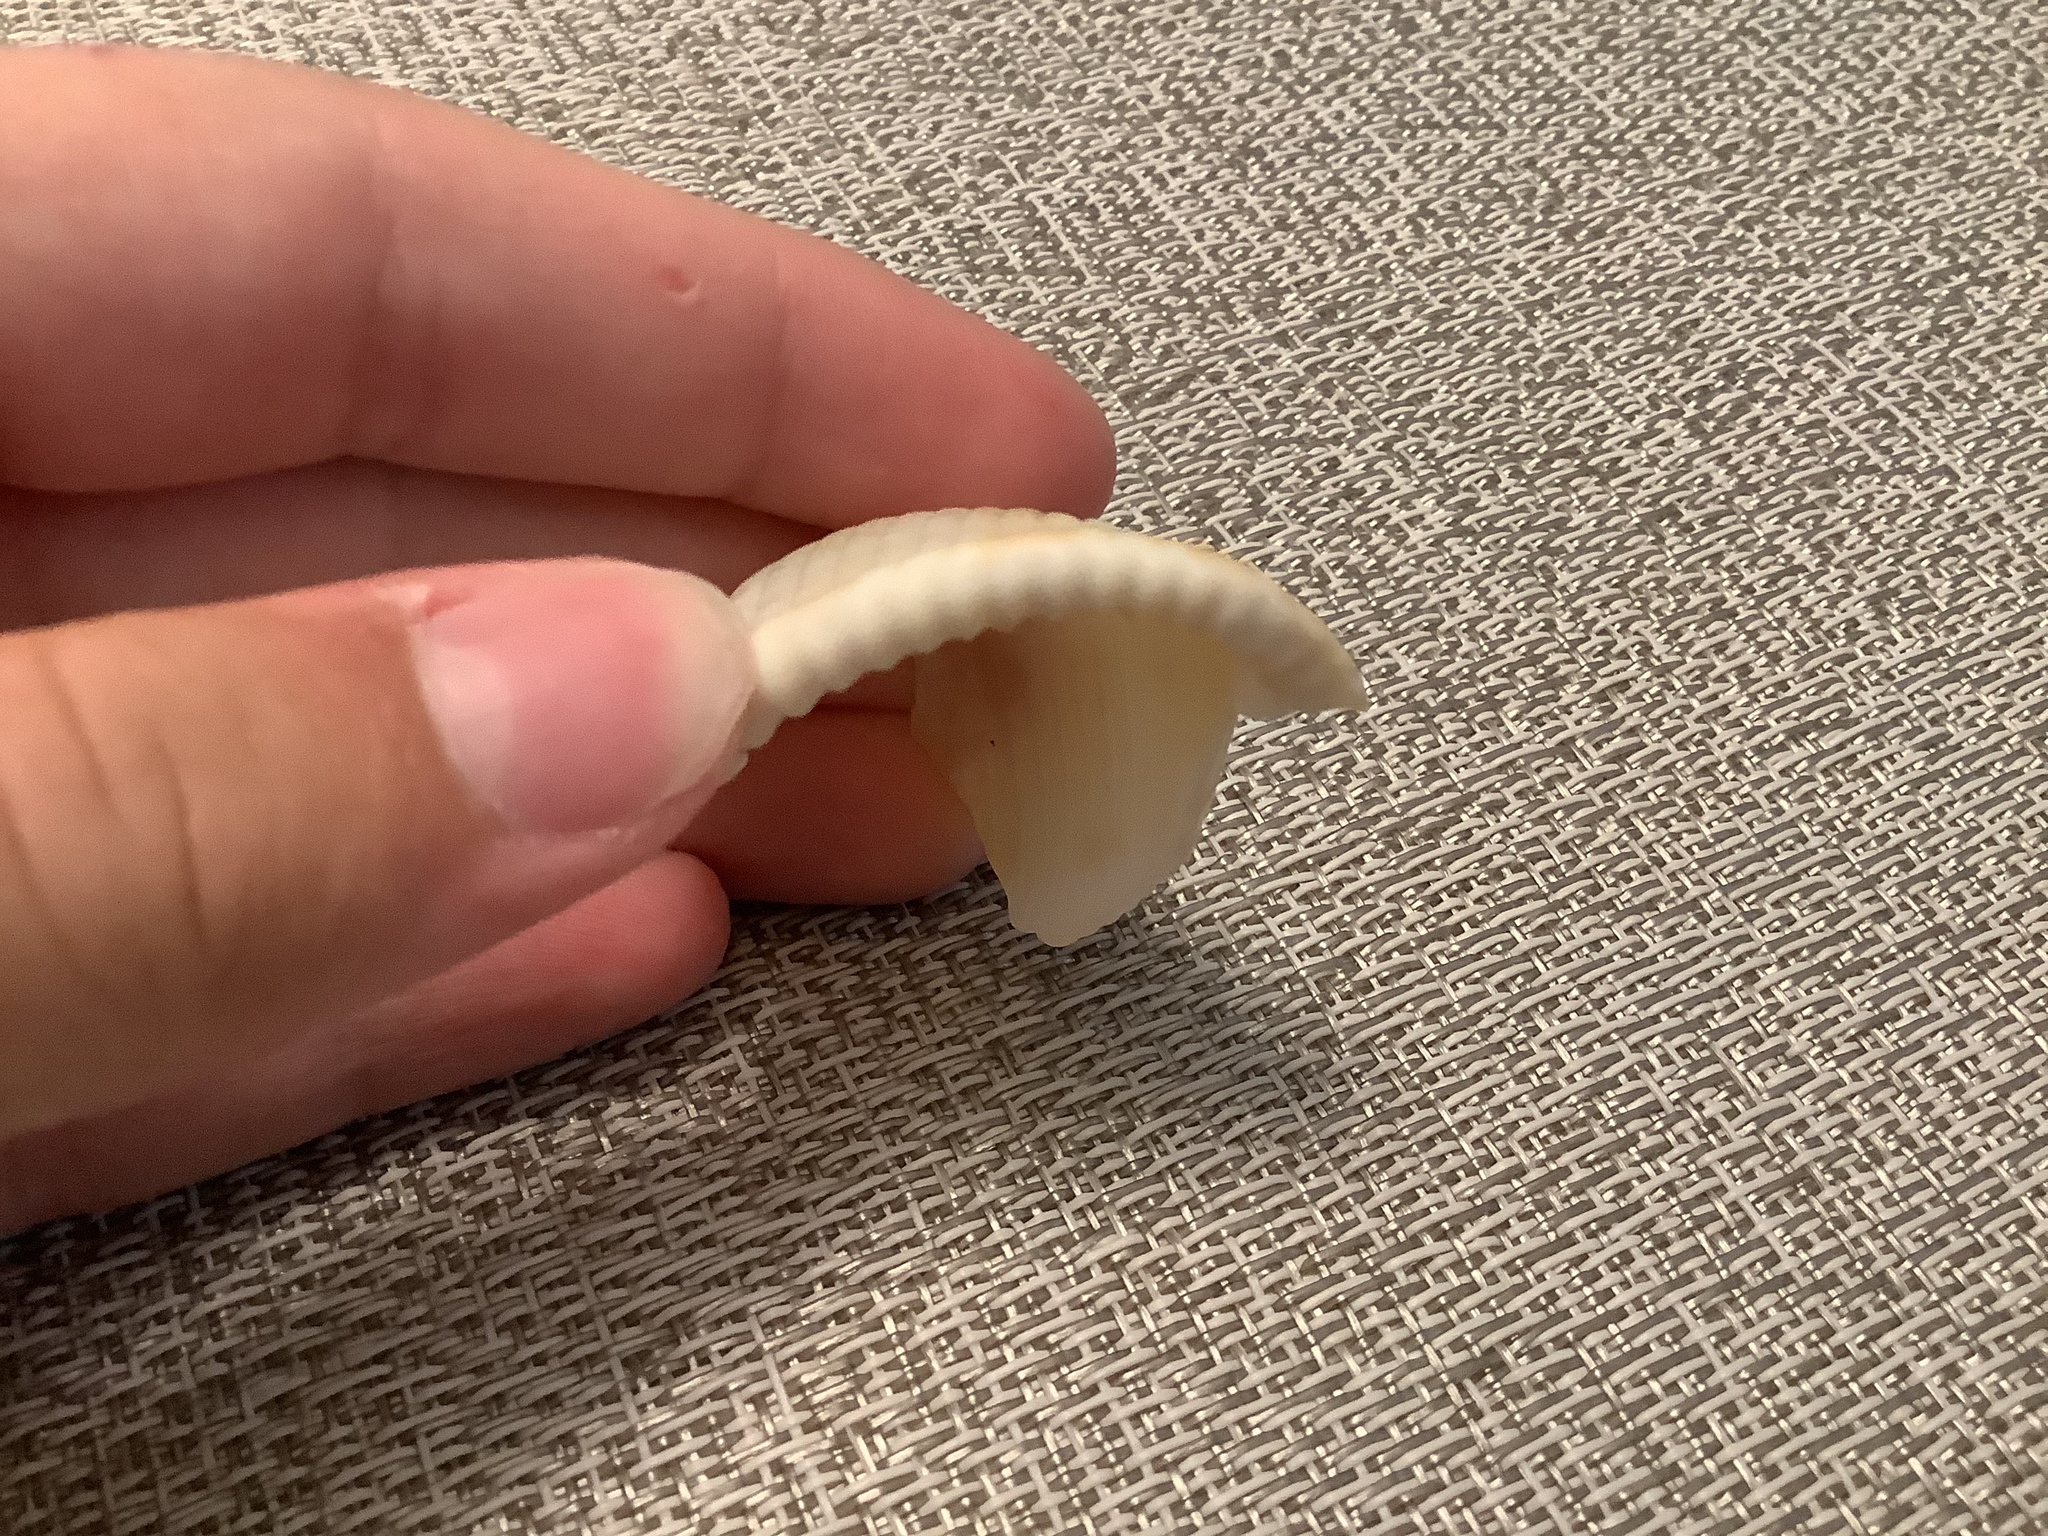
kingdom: Animalia
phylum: Mollusca
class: Gastropoda
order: Littorinimorpha
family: Cassidae
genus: Semicassis
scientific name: Semicassis granulata
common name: Scotch bonnet
